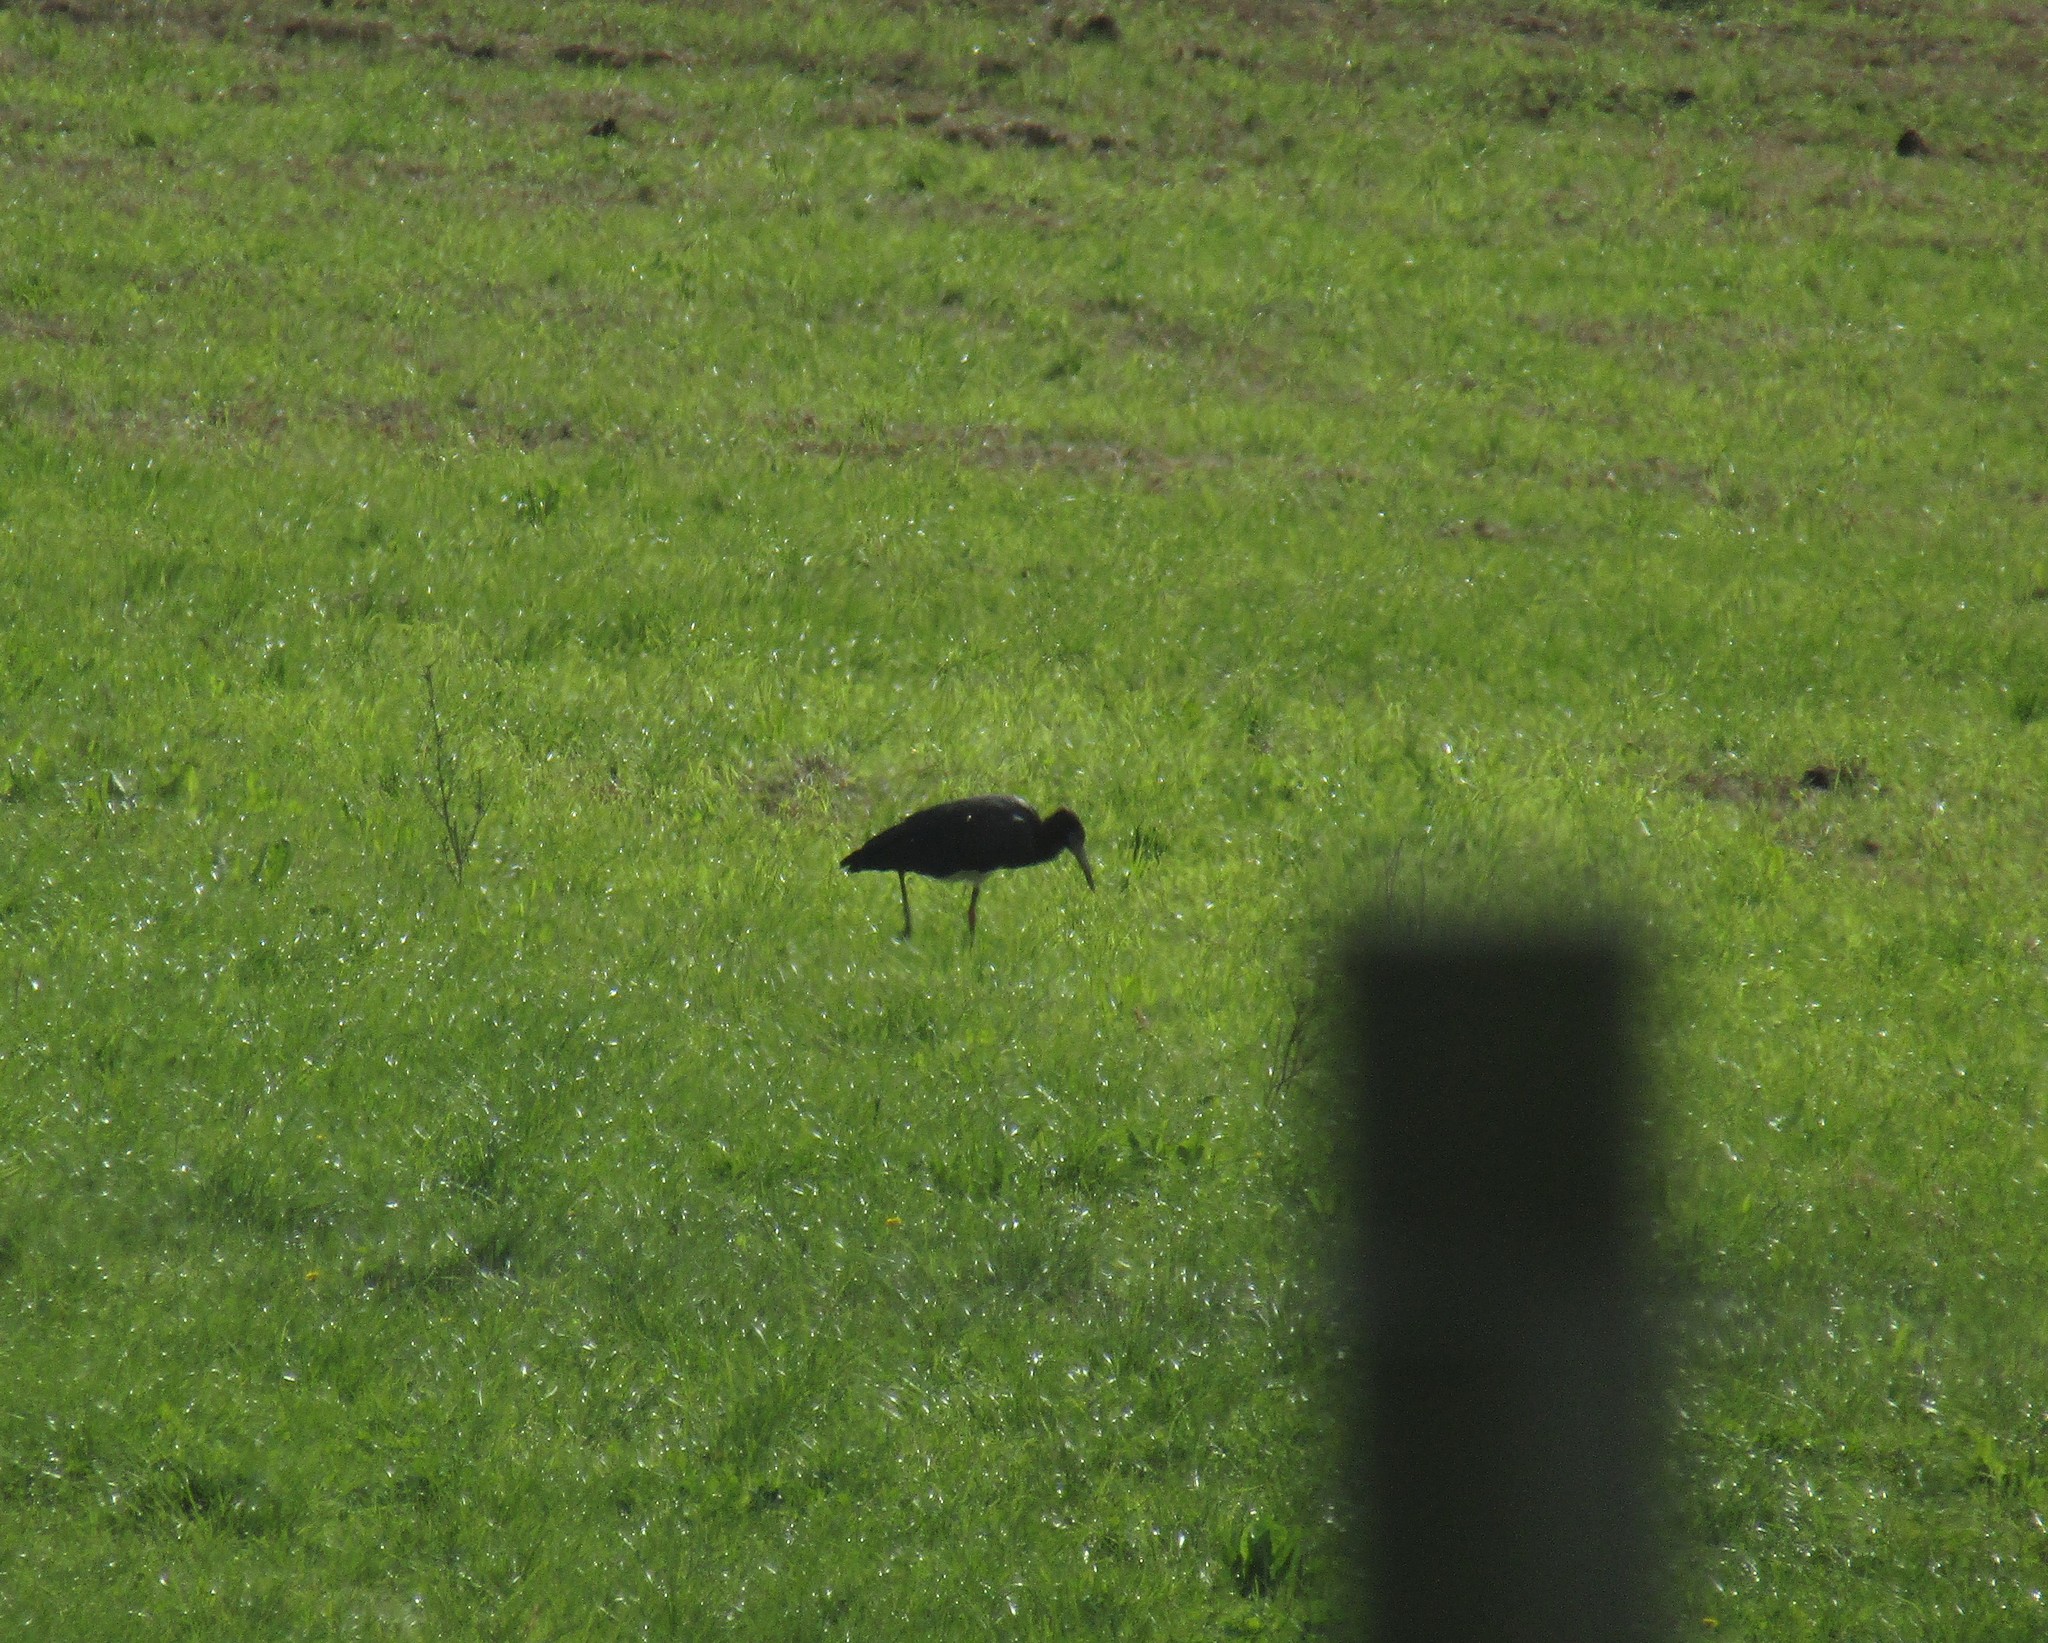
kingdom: Animalia
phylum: Chordata
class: Aves
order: Ciconiiformes
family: Ciconiidae
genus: Ciconia
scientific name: Ciconia abdimii
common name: Abdim's stork
